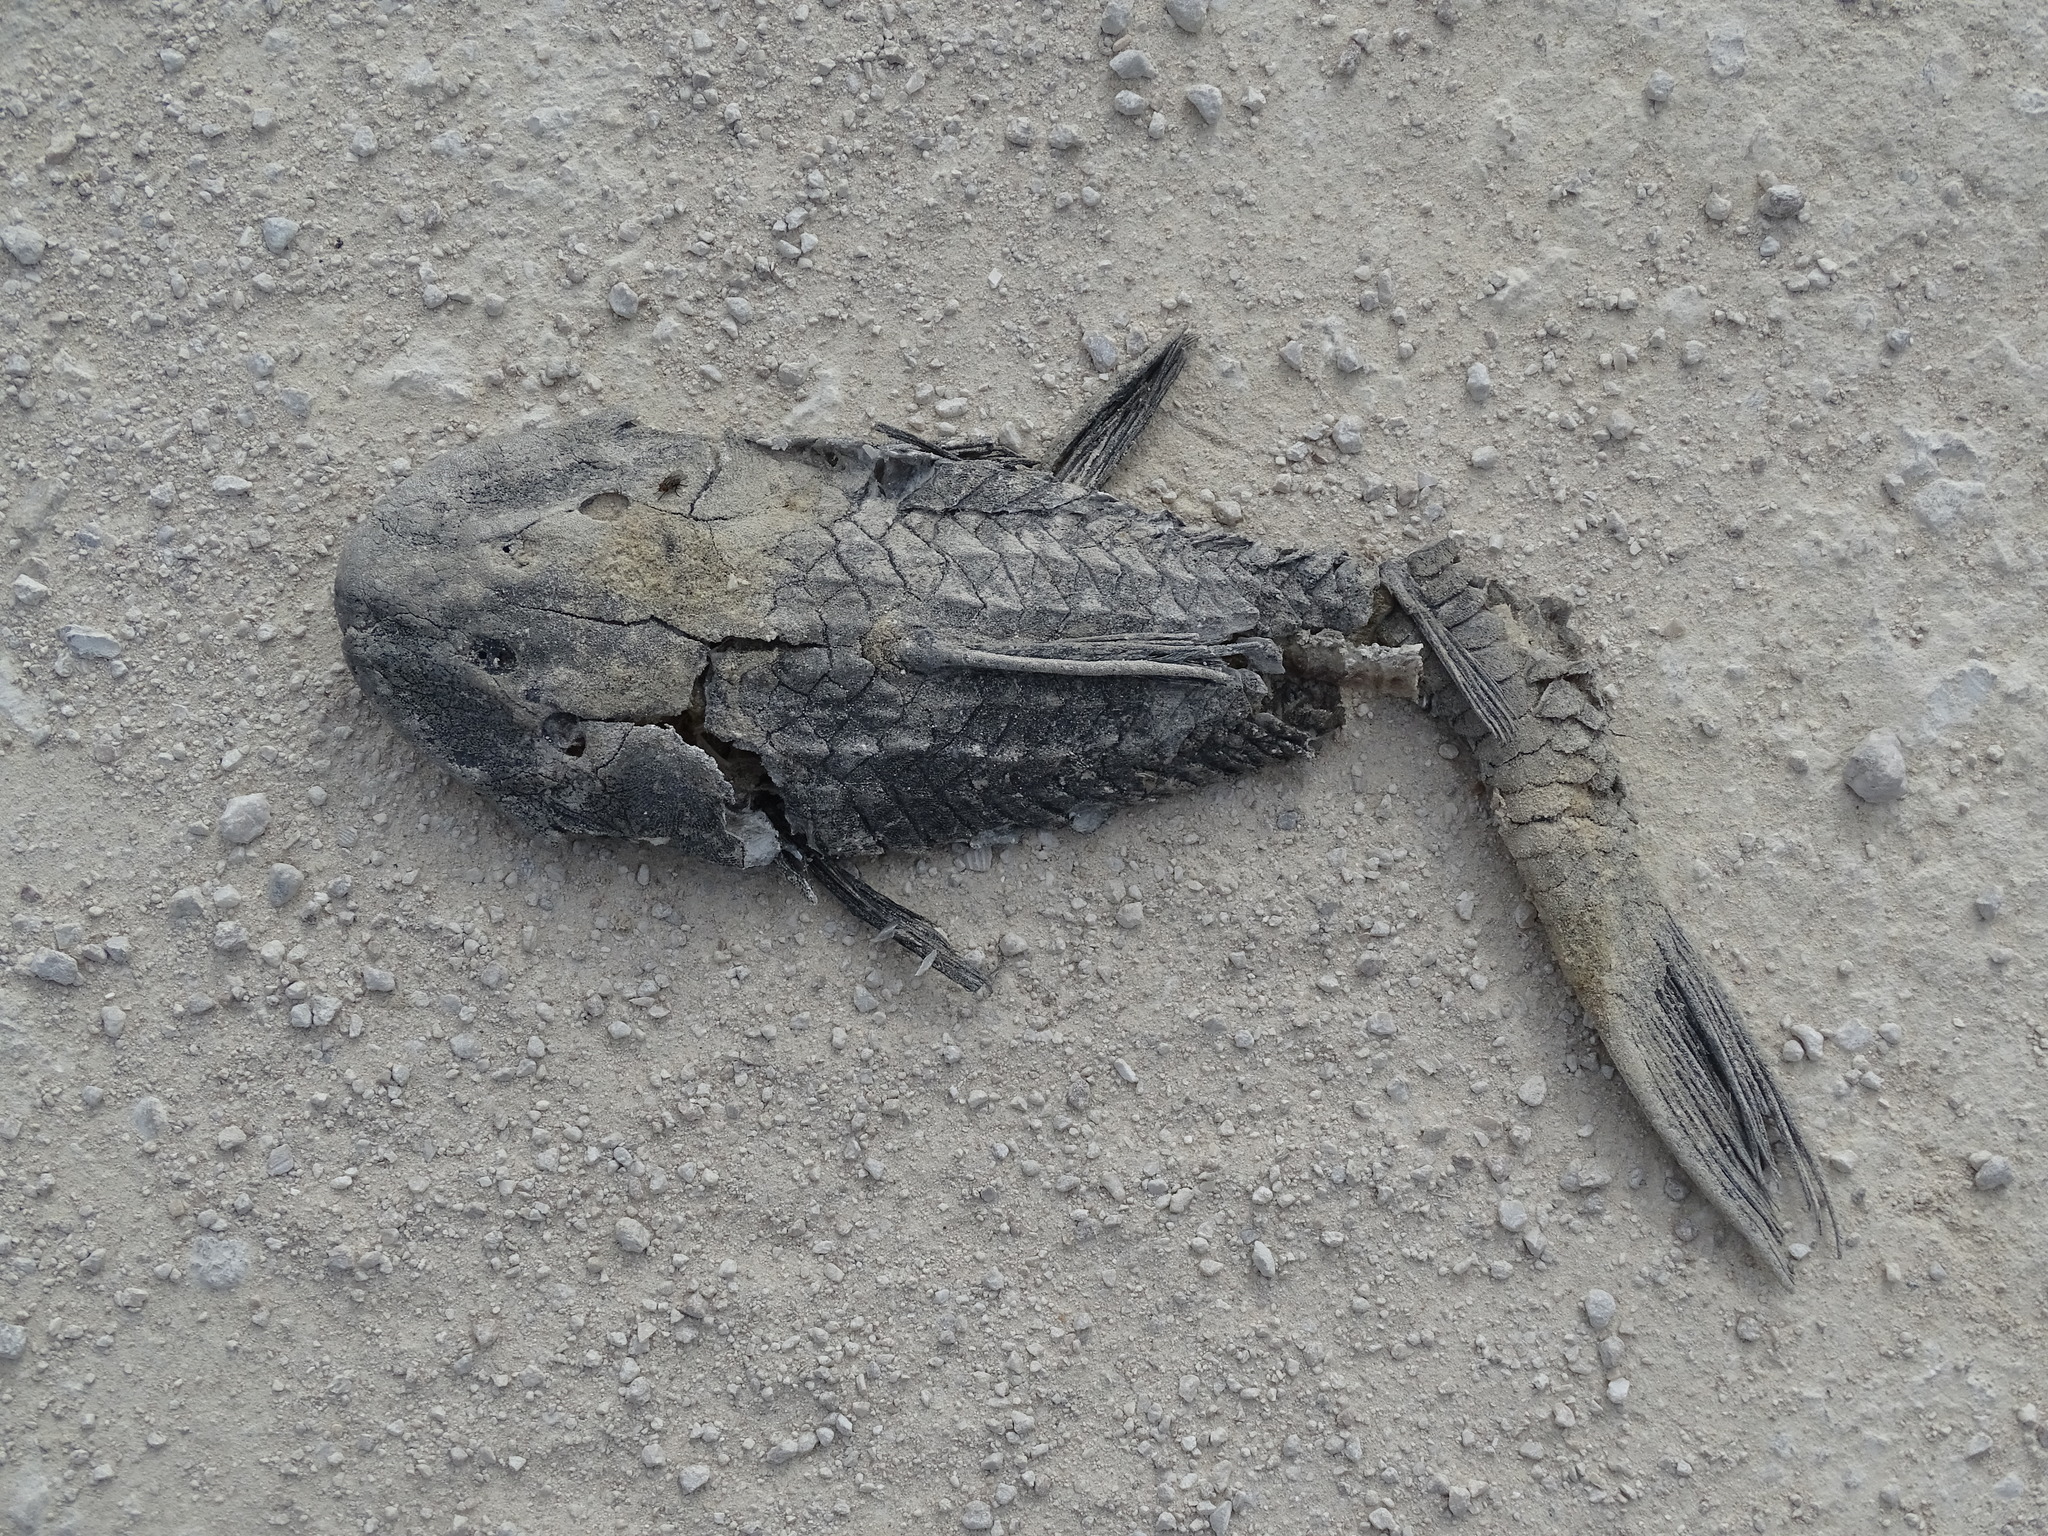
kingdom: Animalia
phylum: Chordata
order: Siluriformes
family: Loricariidae
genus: Pterygoplichthys
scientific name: Pterygoplichthys
